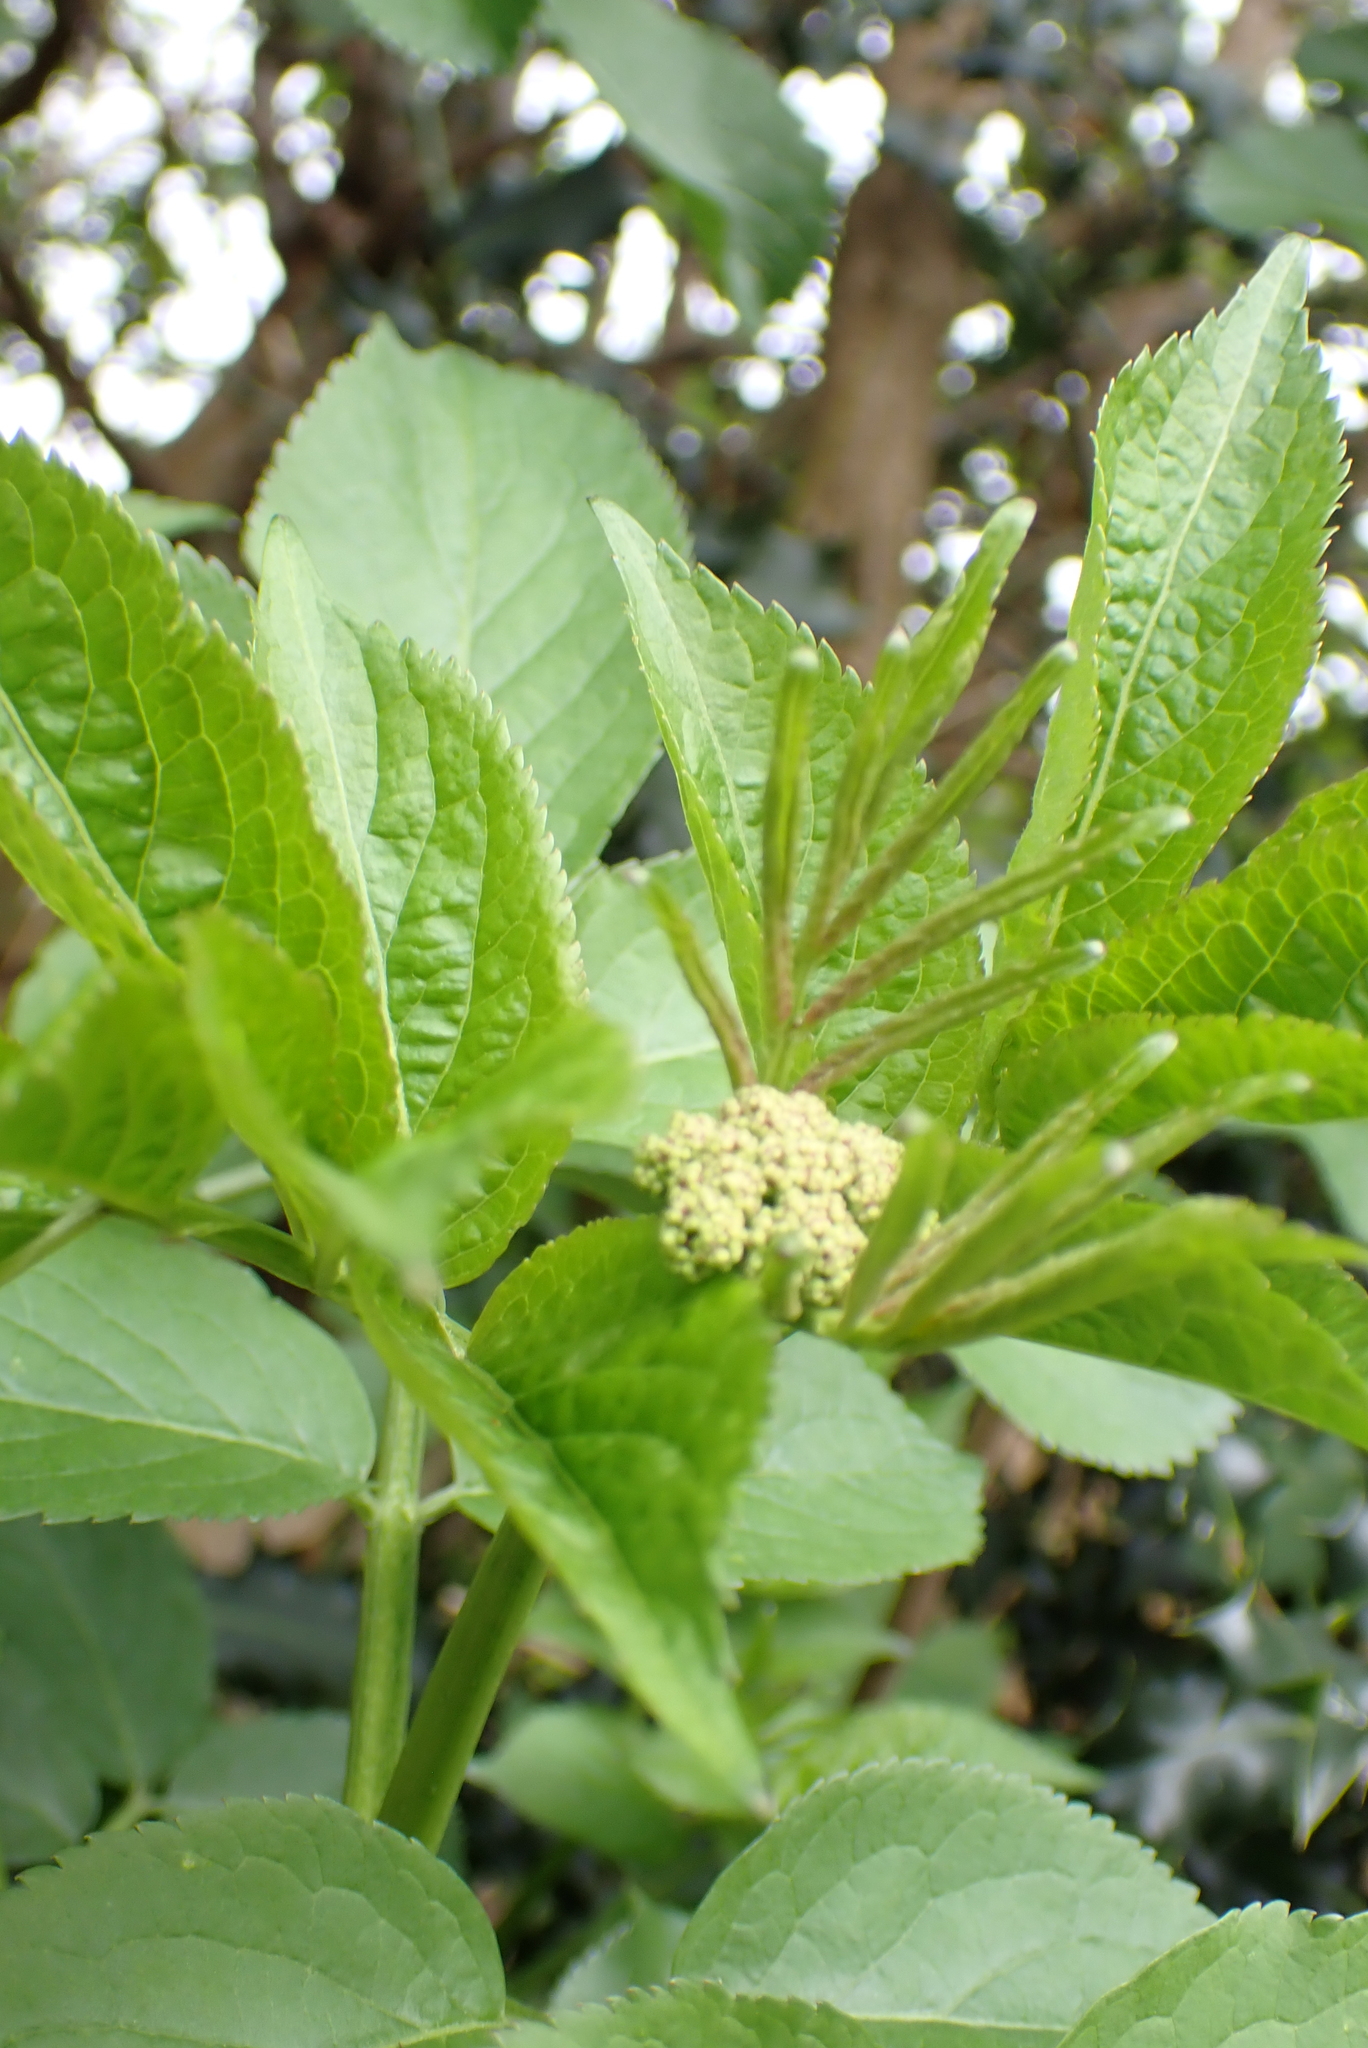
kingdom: Plantae
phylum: Tracheophyta
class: Magnoliopsida
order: Dipsacales
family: Viburnaceae
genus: Sambucus
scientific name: Sambucus nigra
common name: Elder
